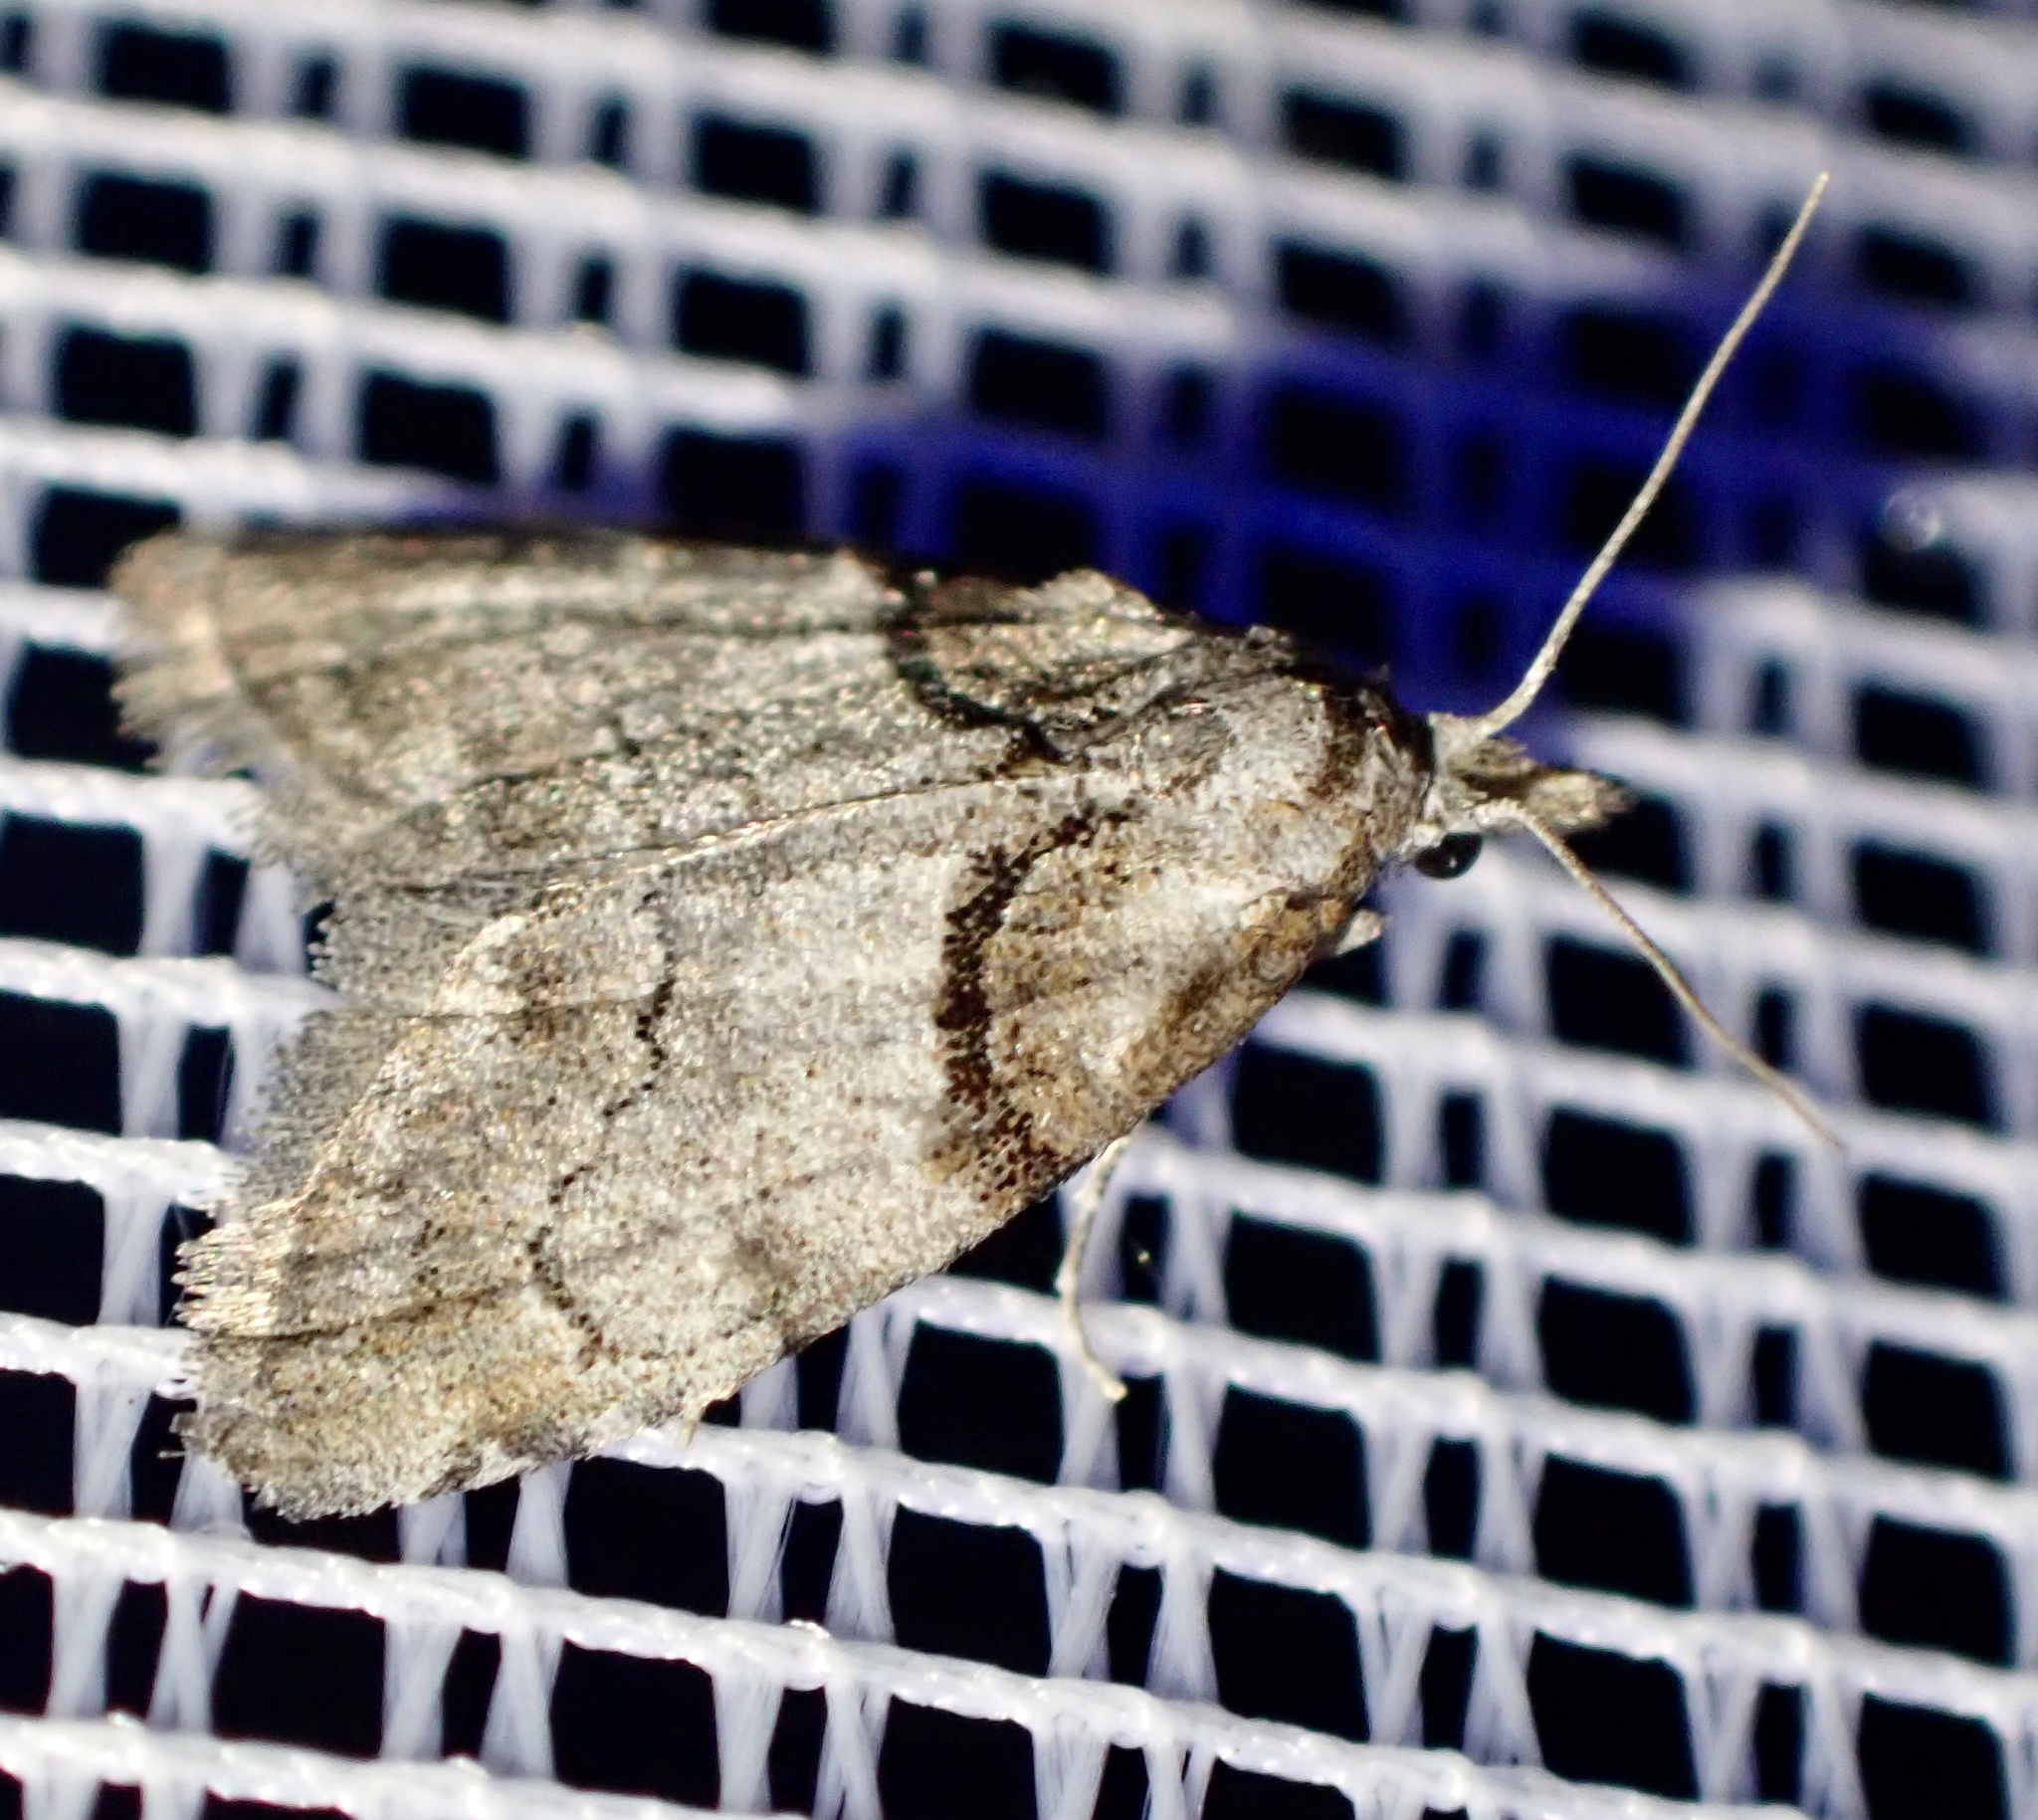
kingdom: Animalia
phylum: Arthropoda
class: Insecta
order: Lepidoptera
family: Nolidae
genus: Nola
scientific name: Nola cucullatella
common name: Short-cloaked moth
